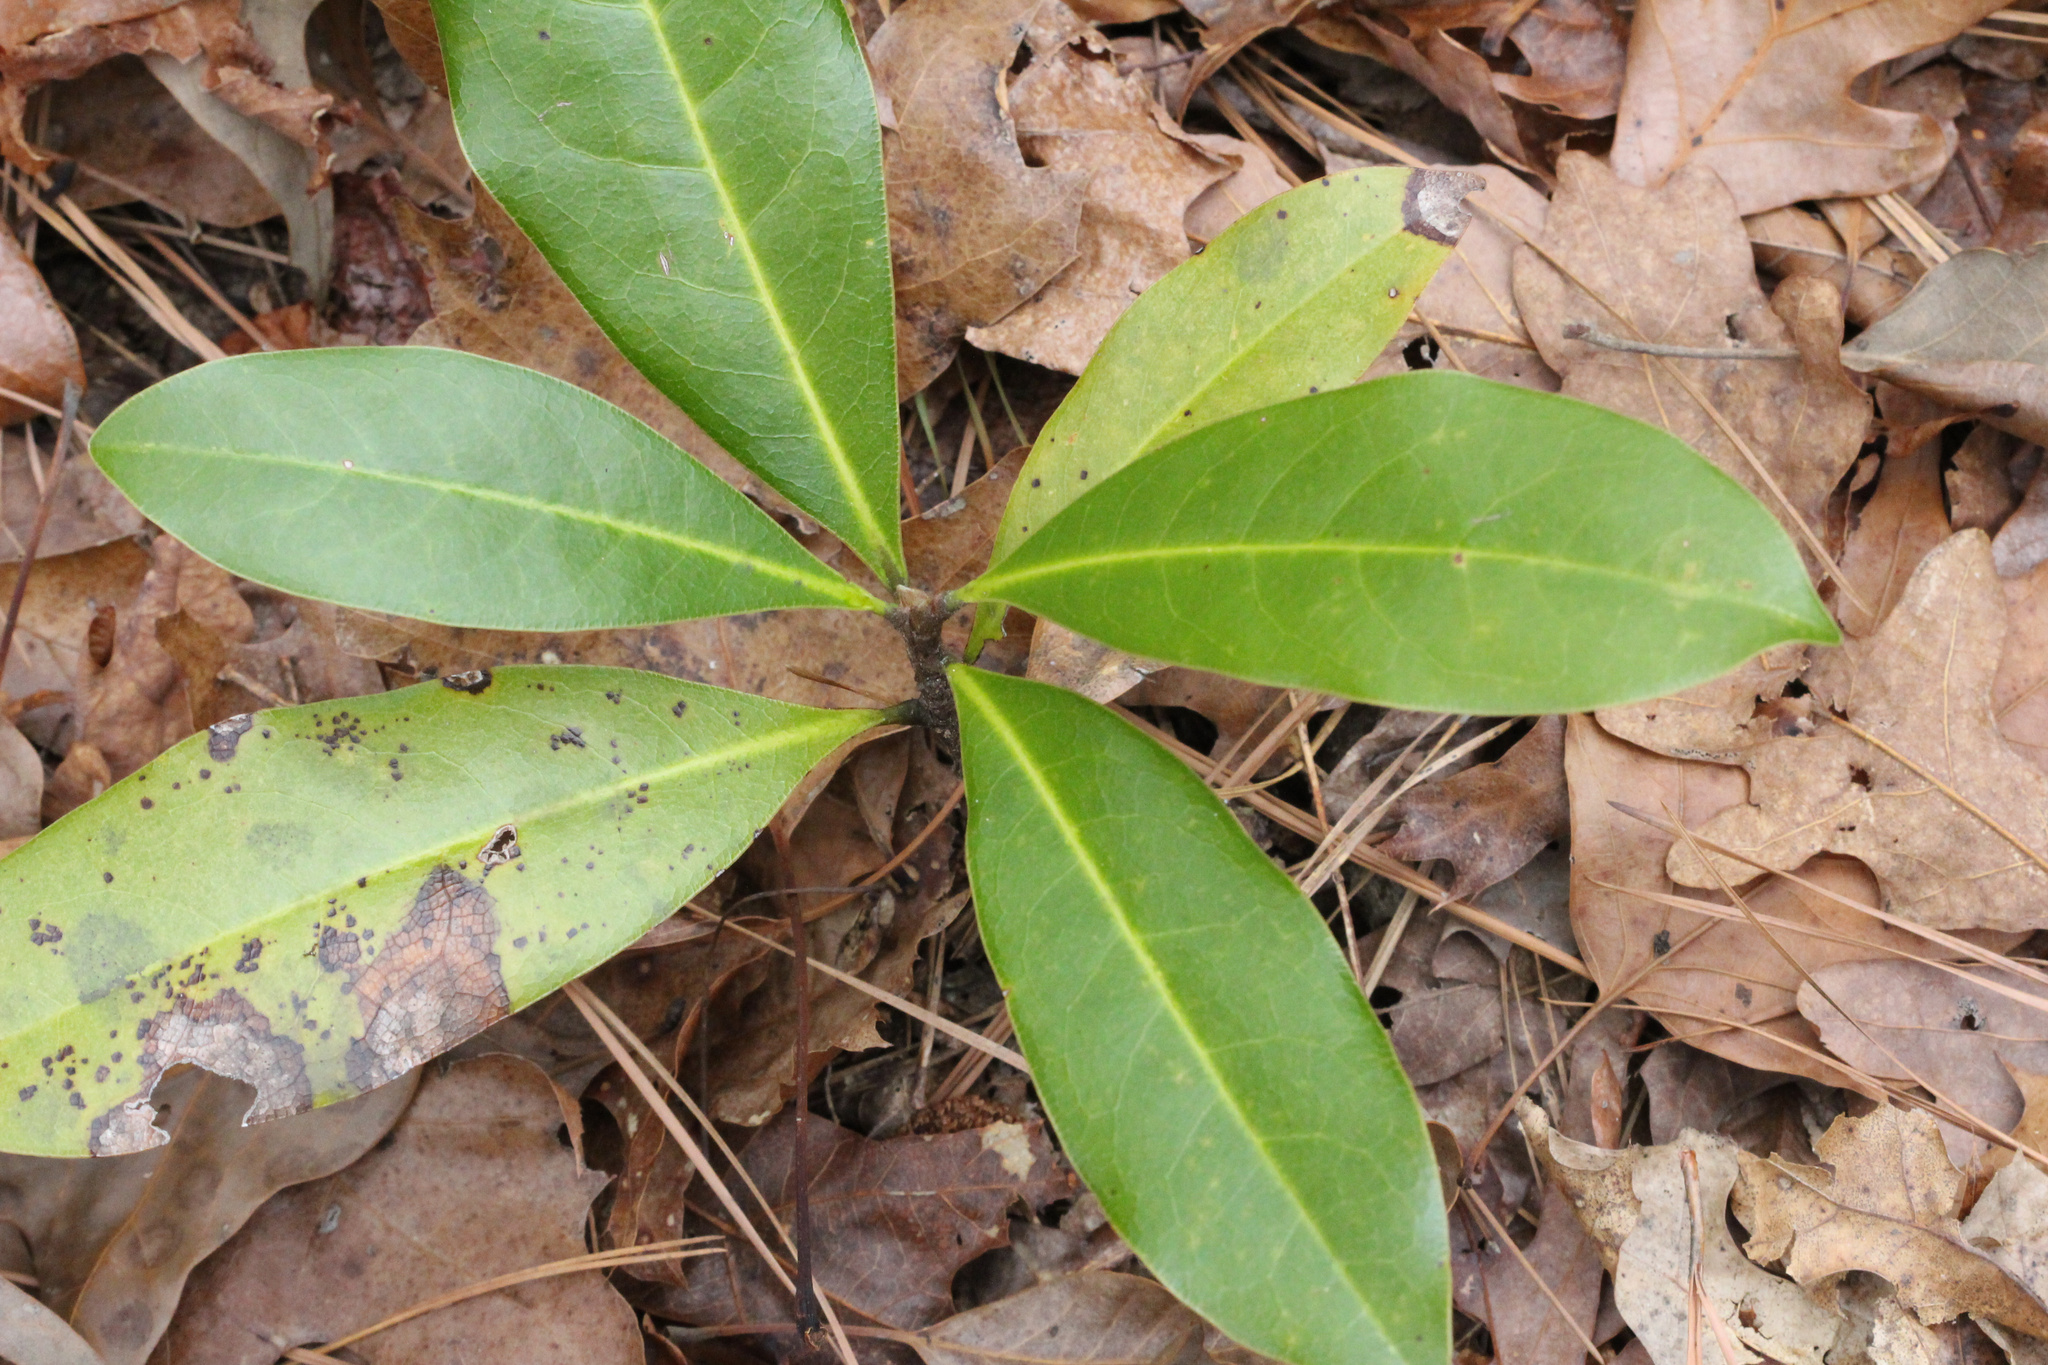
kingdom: Plantae
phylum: Tracheophyta
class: Magnoliopsida
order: Magnoliales
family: Magnoliaceae
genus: Magnolia
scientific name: Magnolia virginiana
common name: Swamp bay
